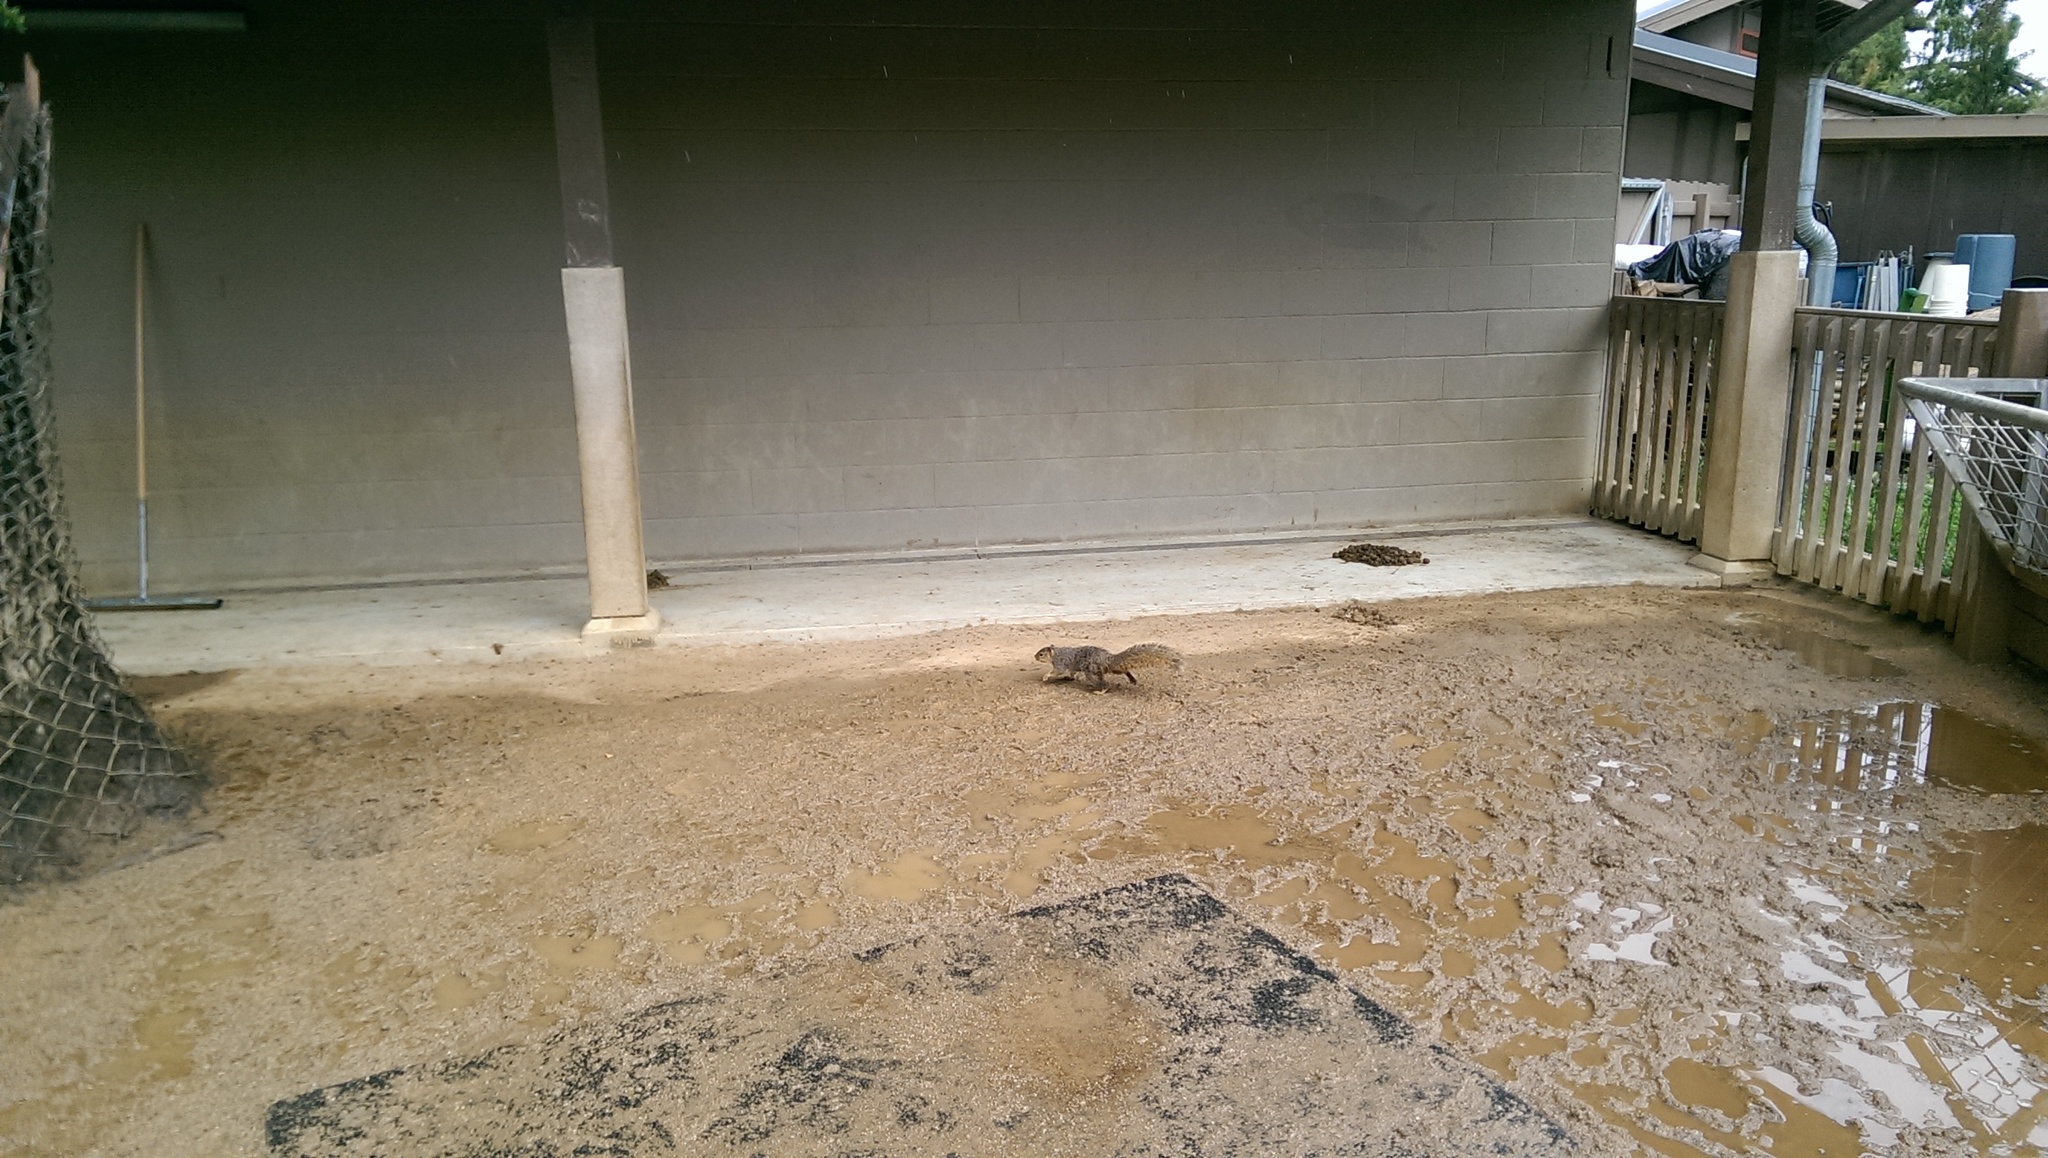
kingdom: Animalia
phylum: Chordata
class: Mammalia
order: Rodentia
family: Sciuridae
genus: Sciurus
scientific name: Sciurus niger
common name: Fox squirrel
